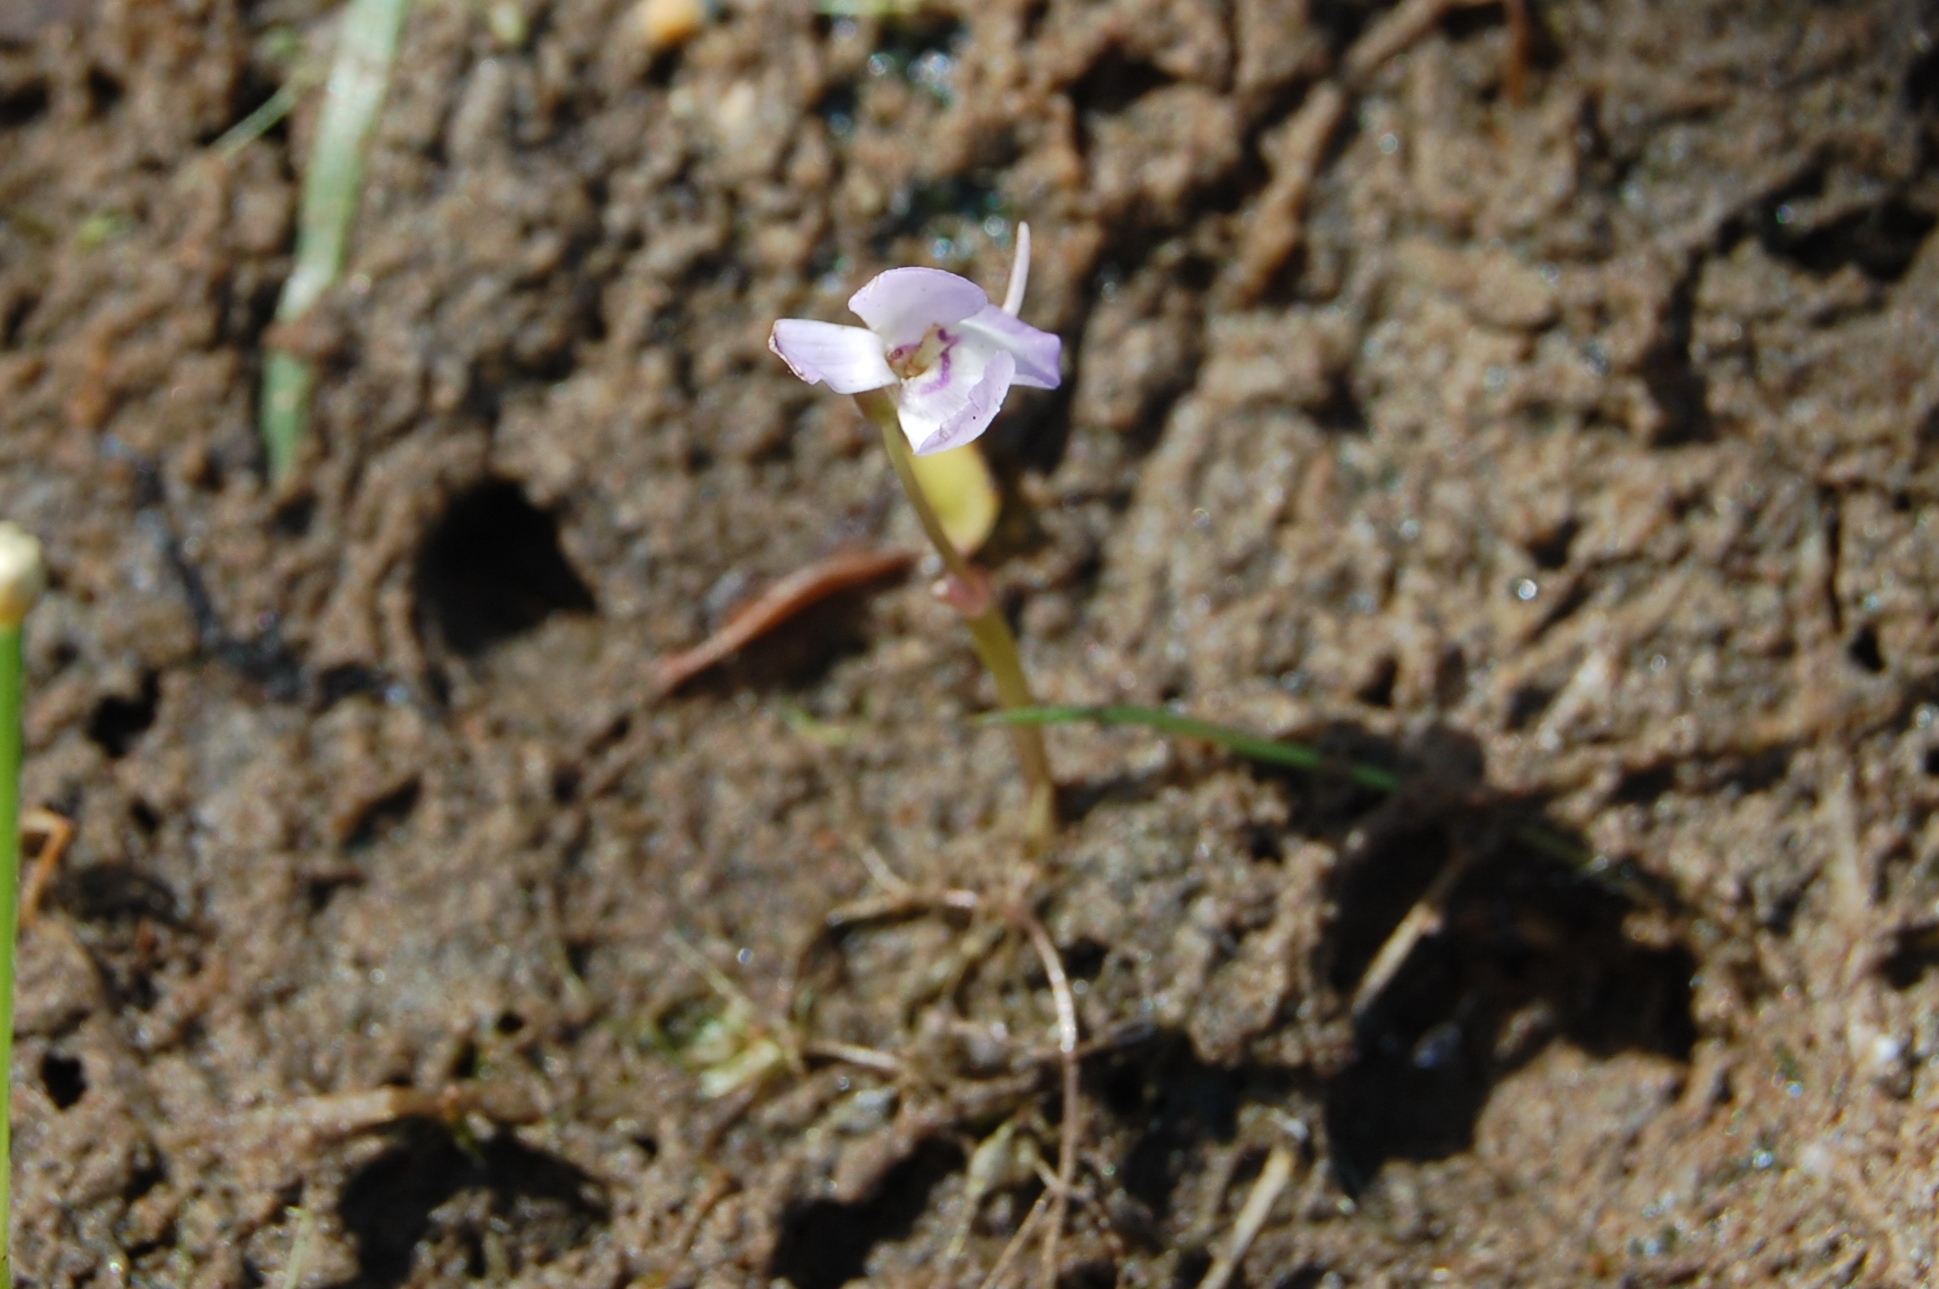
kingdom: Plantae
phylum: Tracheophyta
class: Magnoliopsida
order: Lamiales
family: Lentibulariaceae
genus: Utricularia
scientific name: Utricularia tubulata
